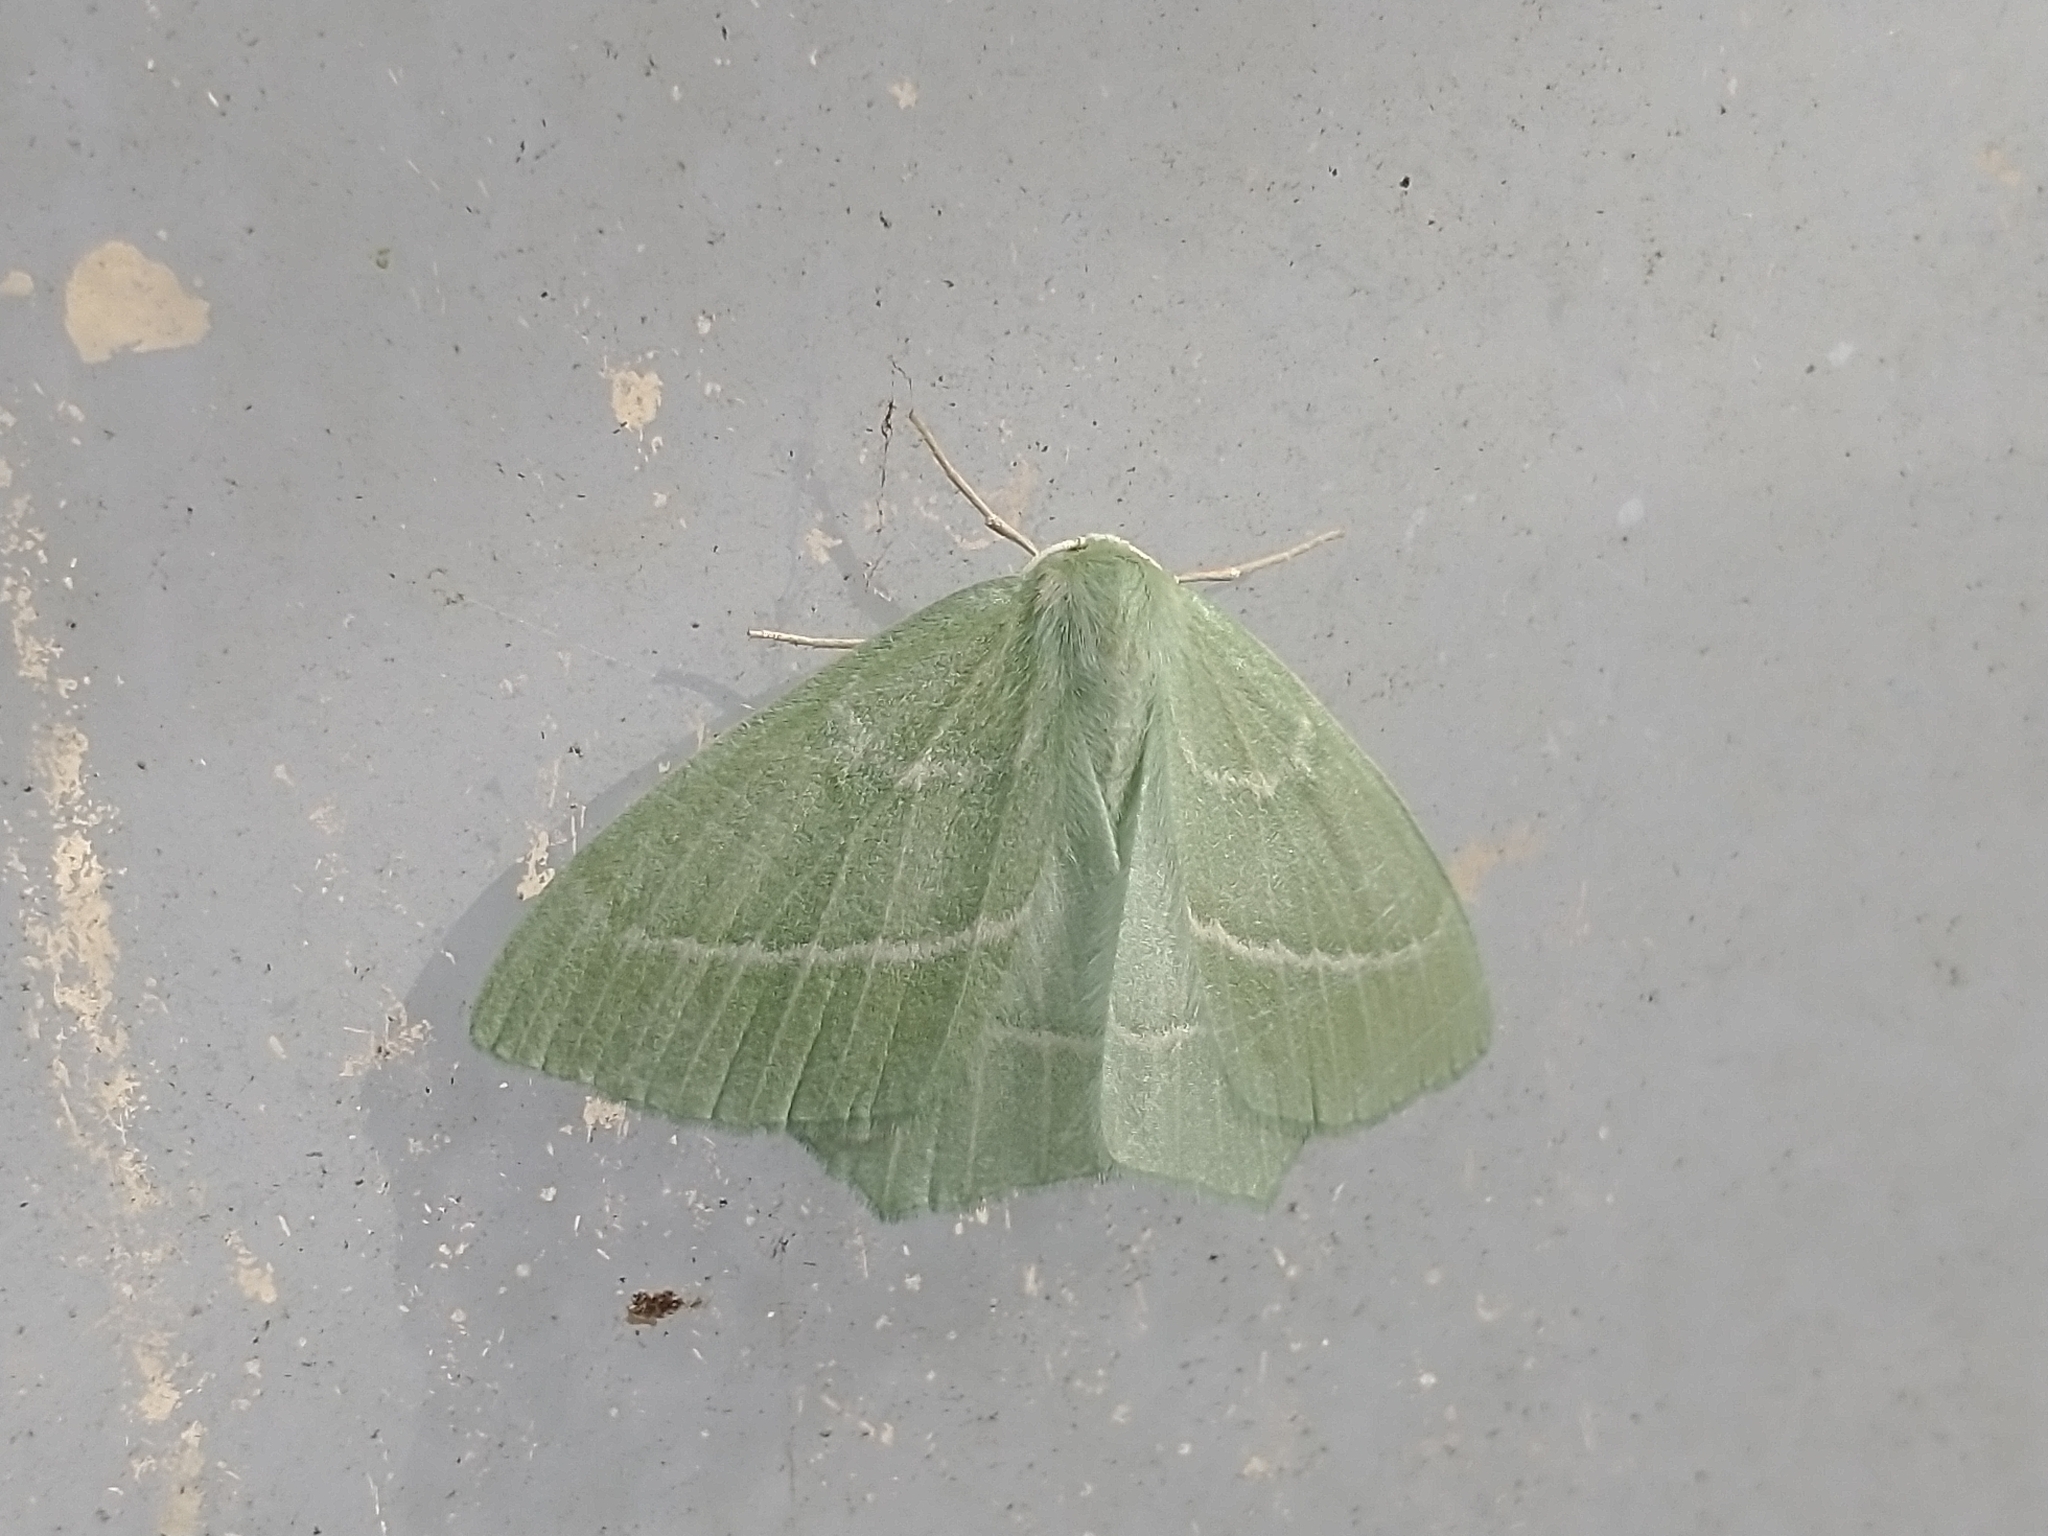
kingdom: Animalia
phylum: Arthropoda
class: Insecta
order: Lepidoptera
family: Geometridae
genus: Hemistola
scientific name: Hemistola chrysoprasaria
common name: Small emerald
